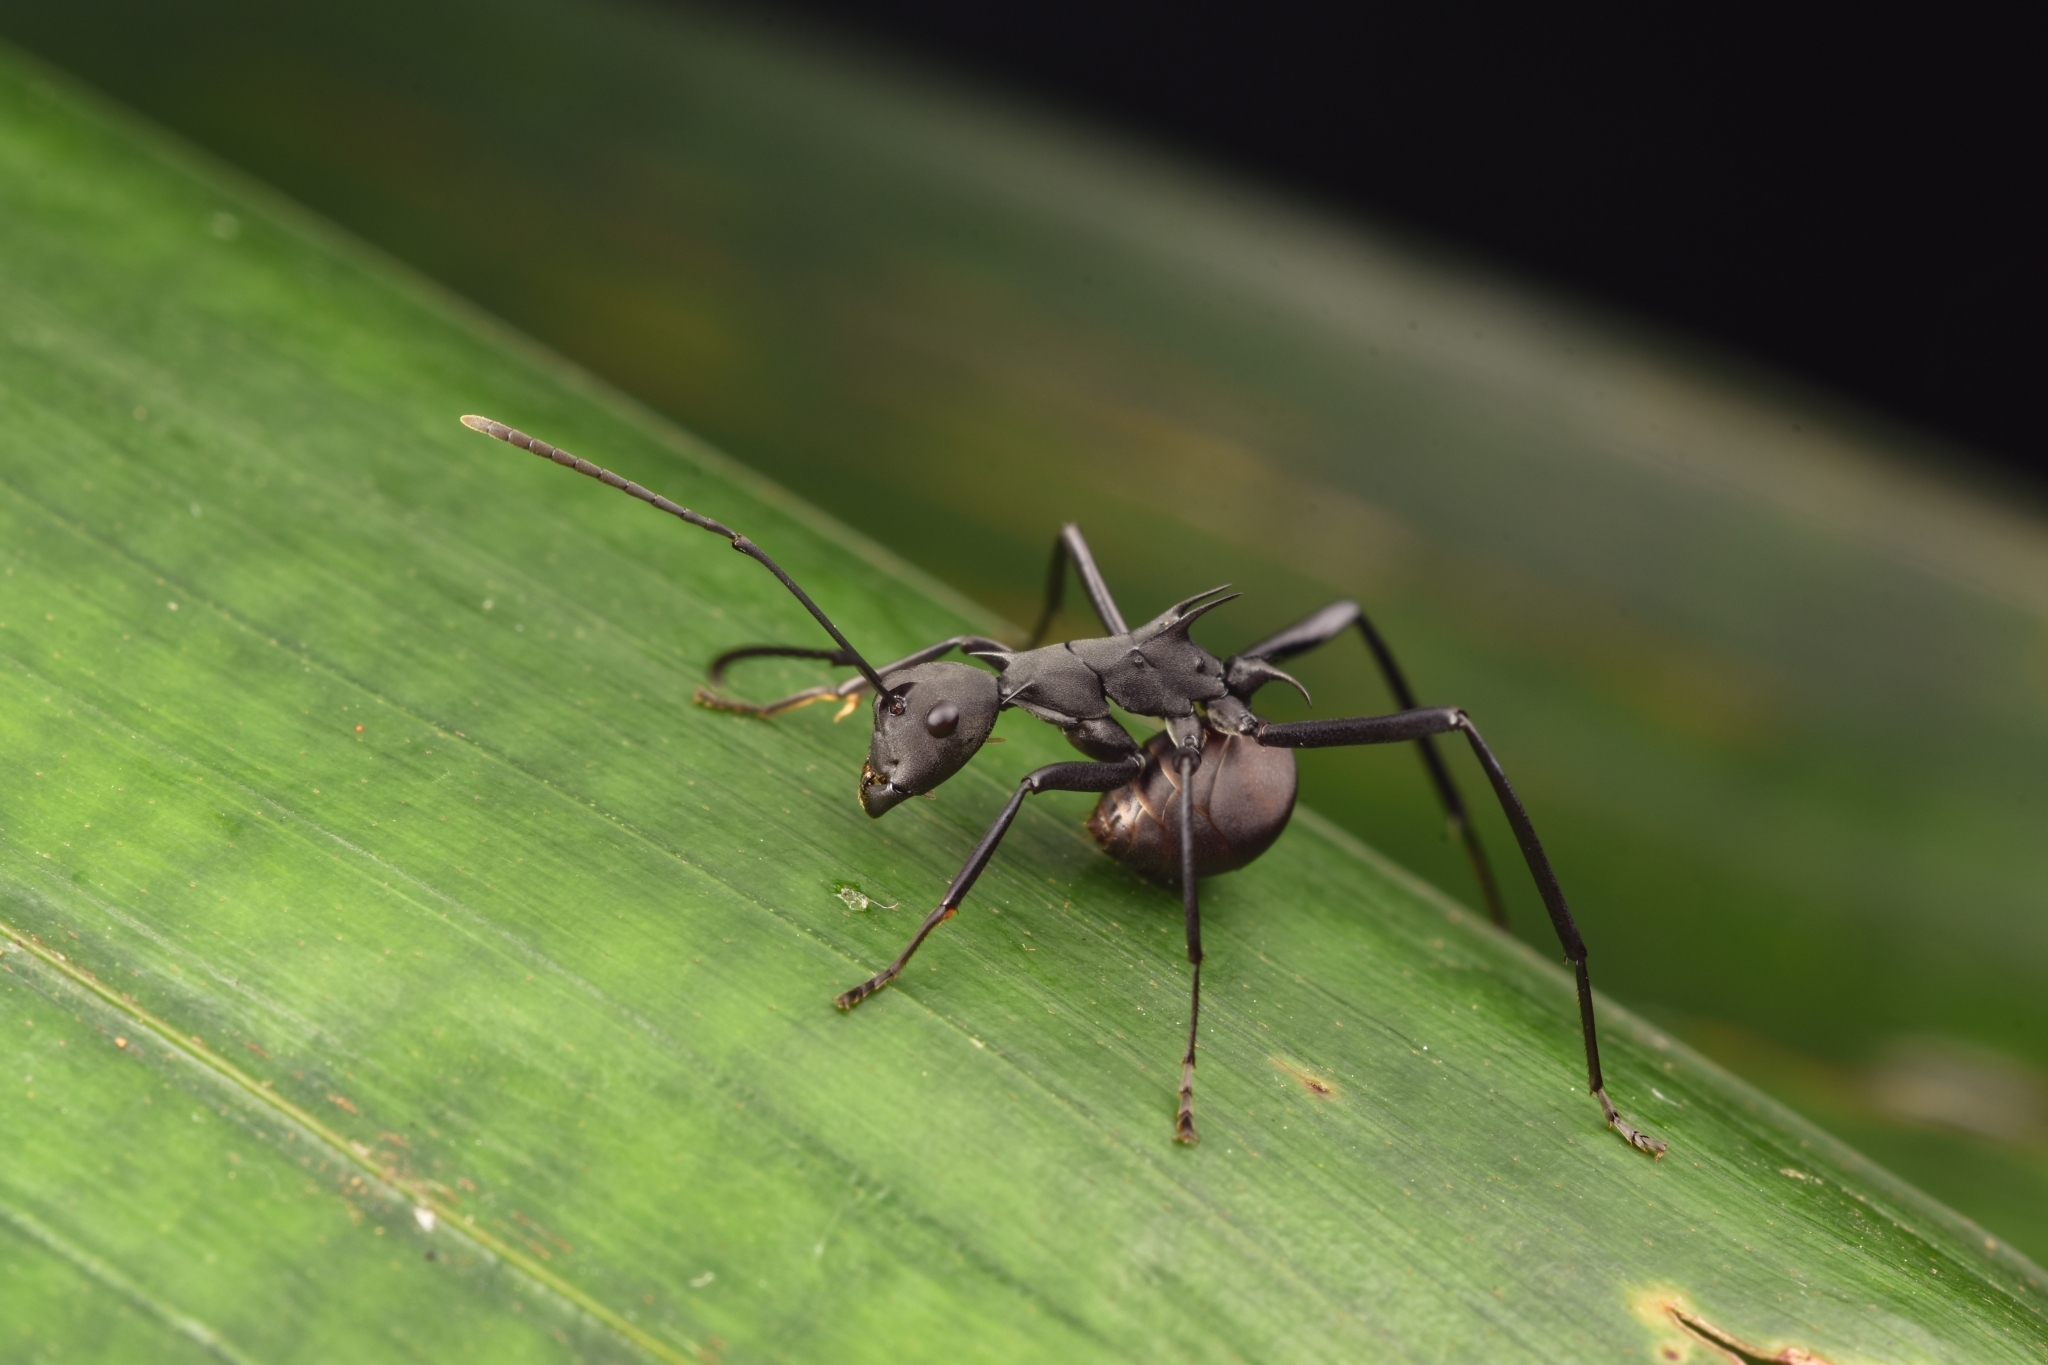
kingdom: Animalia
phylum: Arthropoda
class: Insecta
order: Hymenoptera
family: Formicidae
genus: Polyrhachis
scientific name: Polyrhachis abdominalis
